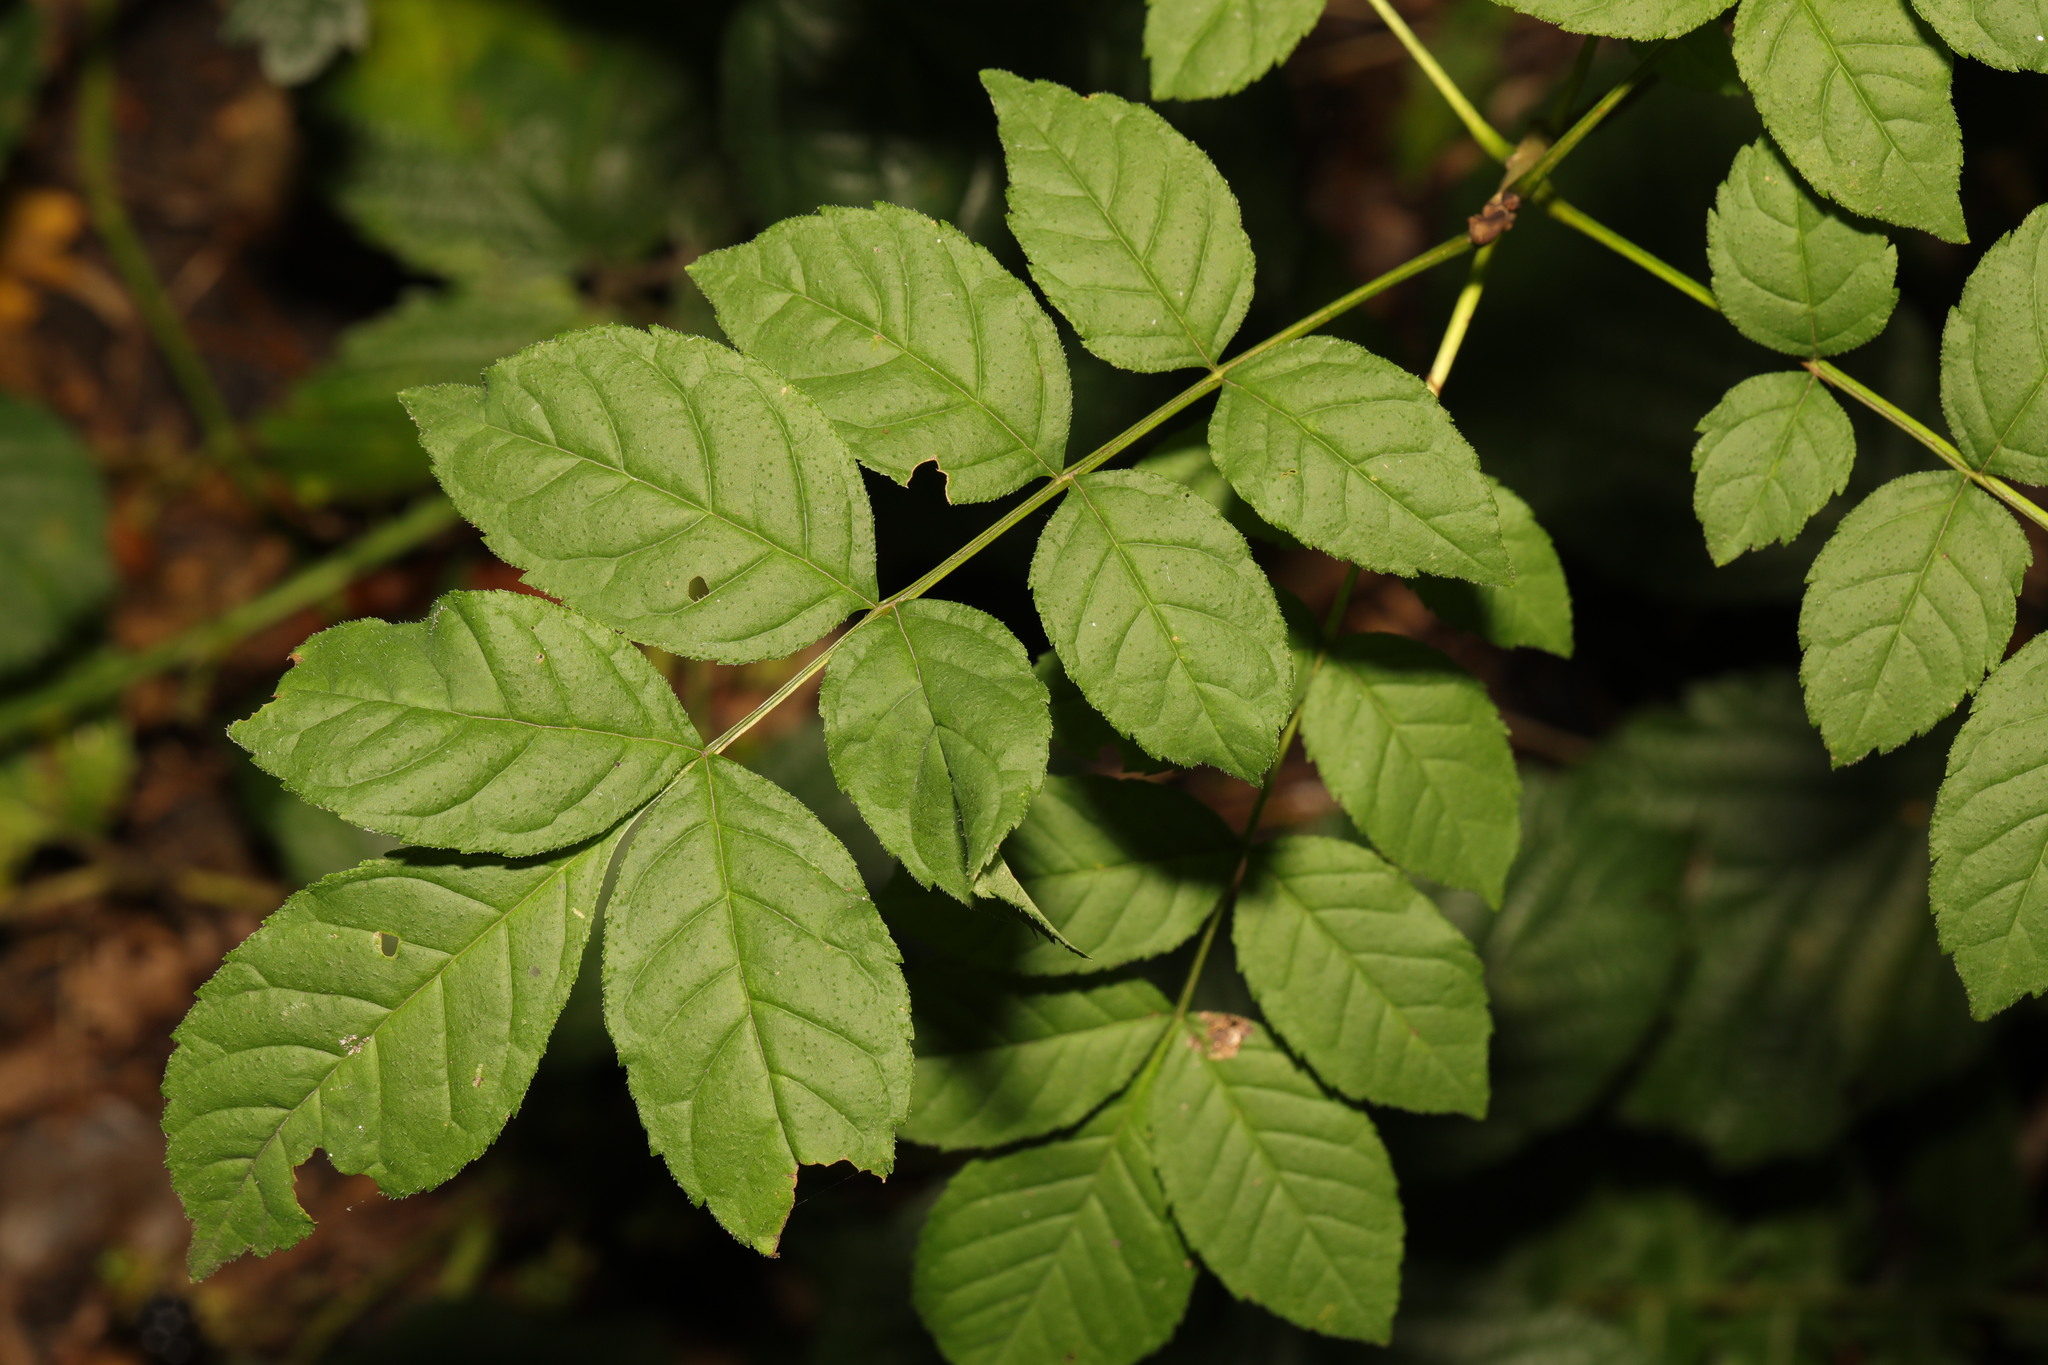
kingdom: Plantae
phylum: Tracheophyta
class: Magnoliopsida
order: Lamiales
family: Oleaceae
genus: Fraxinus
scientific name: Fraxinus excelsior
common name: European ash
